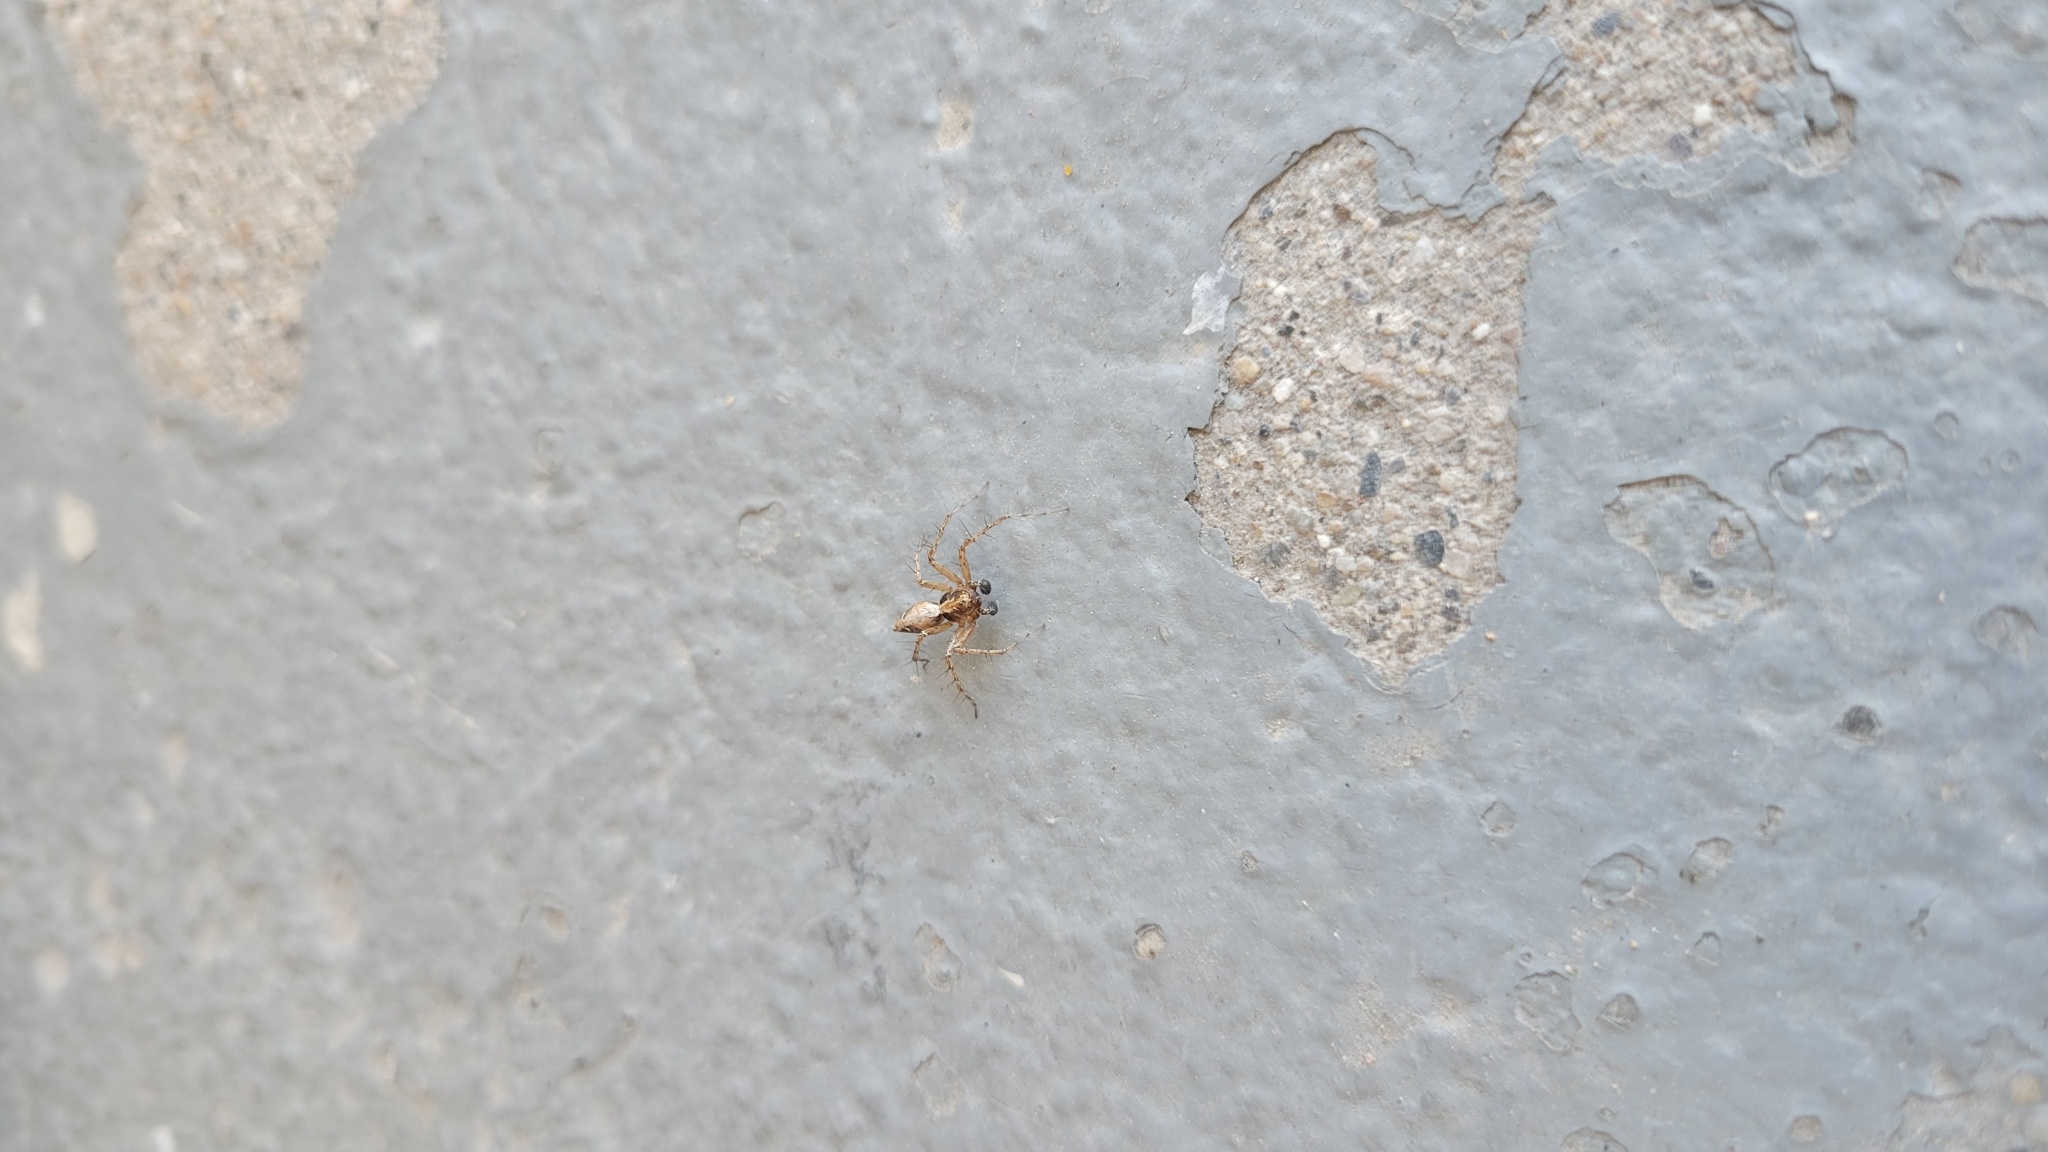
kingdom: Animalia
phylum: Arthropoda
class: Arachnida
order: Araneae
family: Oxyopidae
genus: Oxyopes
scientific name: Oxyopes scalaris
